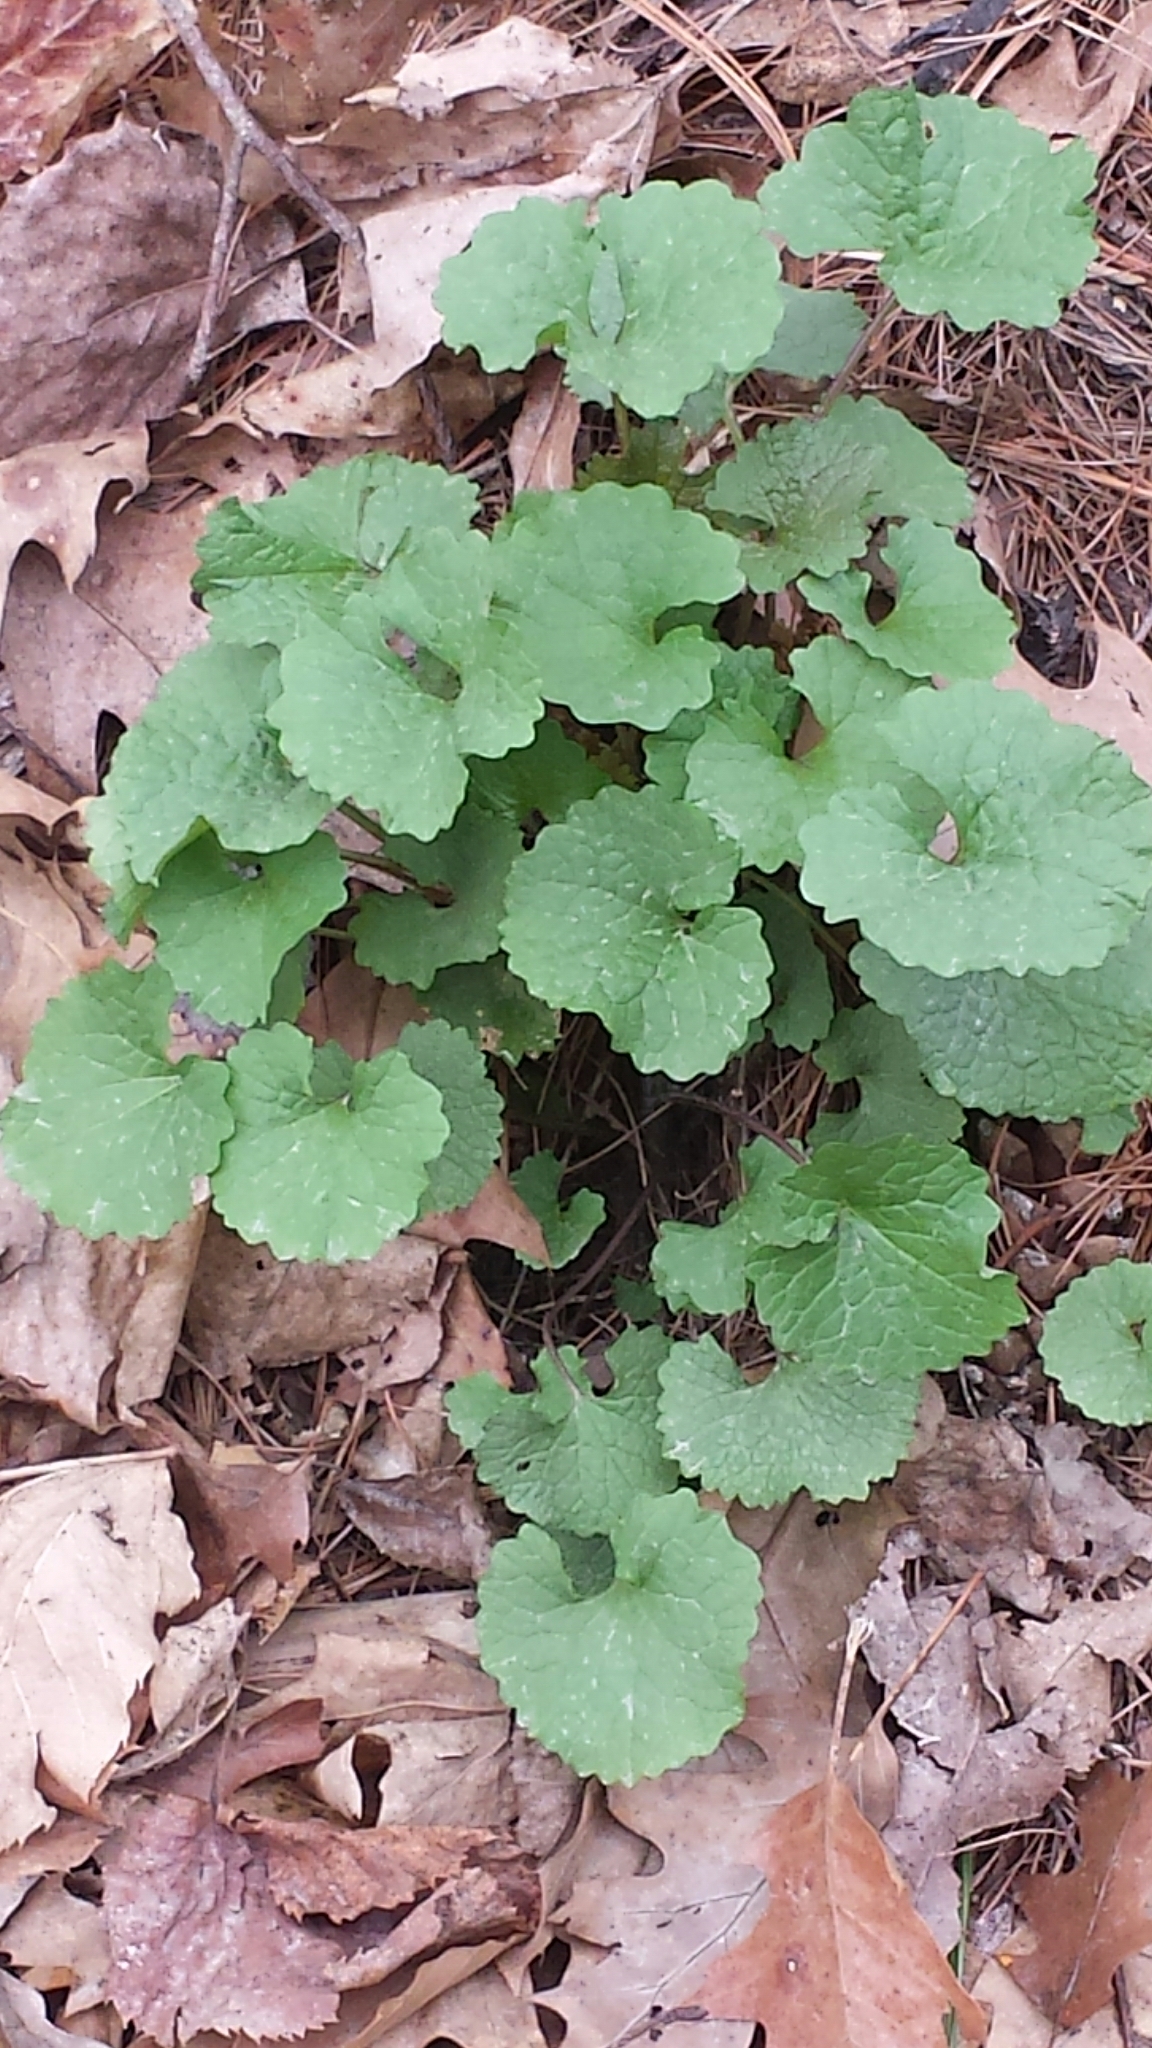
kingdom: Plantae
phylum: Tracheophyta
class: Magnoliopsida
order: Brassicales
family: Brassicaceae
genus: Alliaria
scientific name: Alliaria petiolata
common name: Garlic mustard
